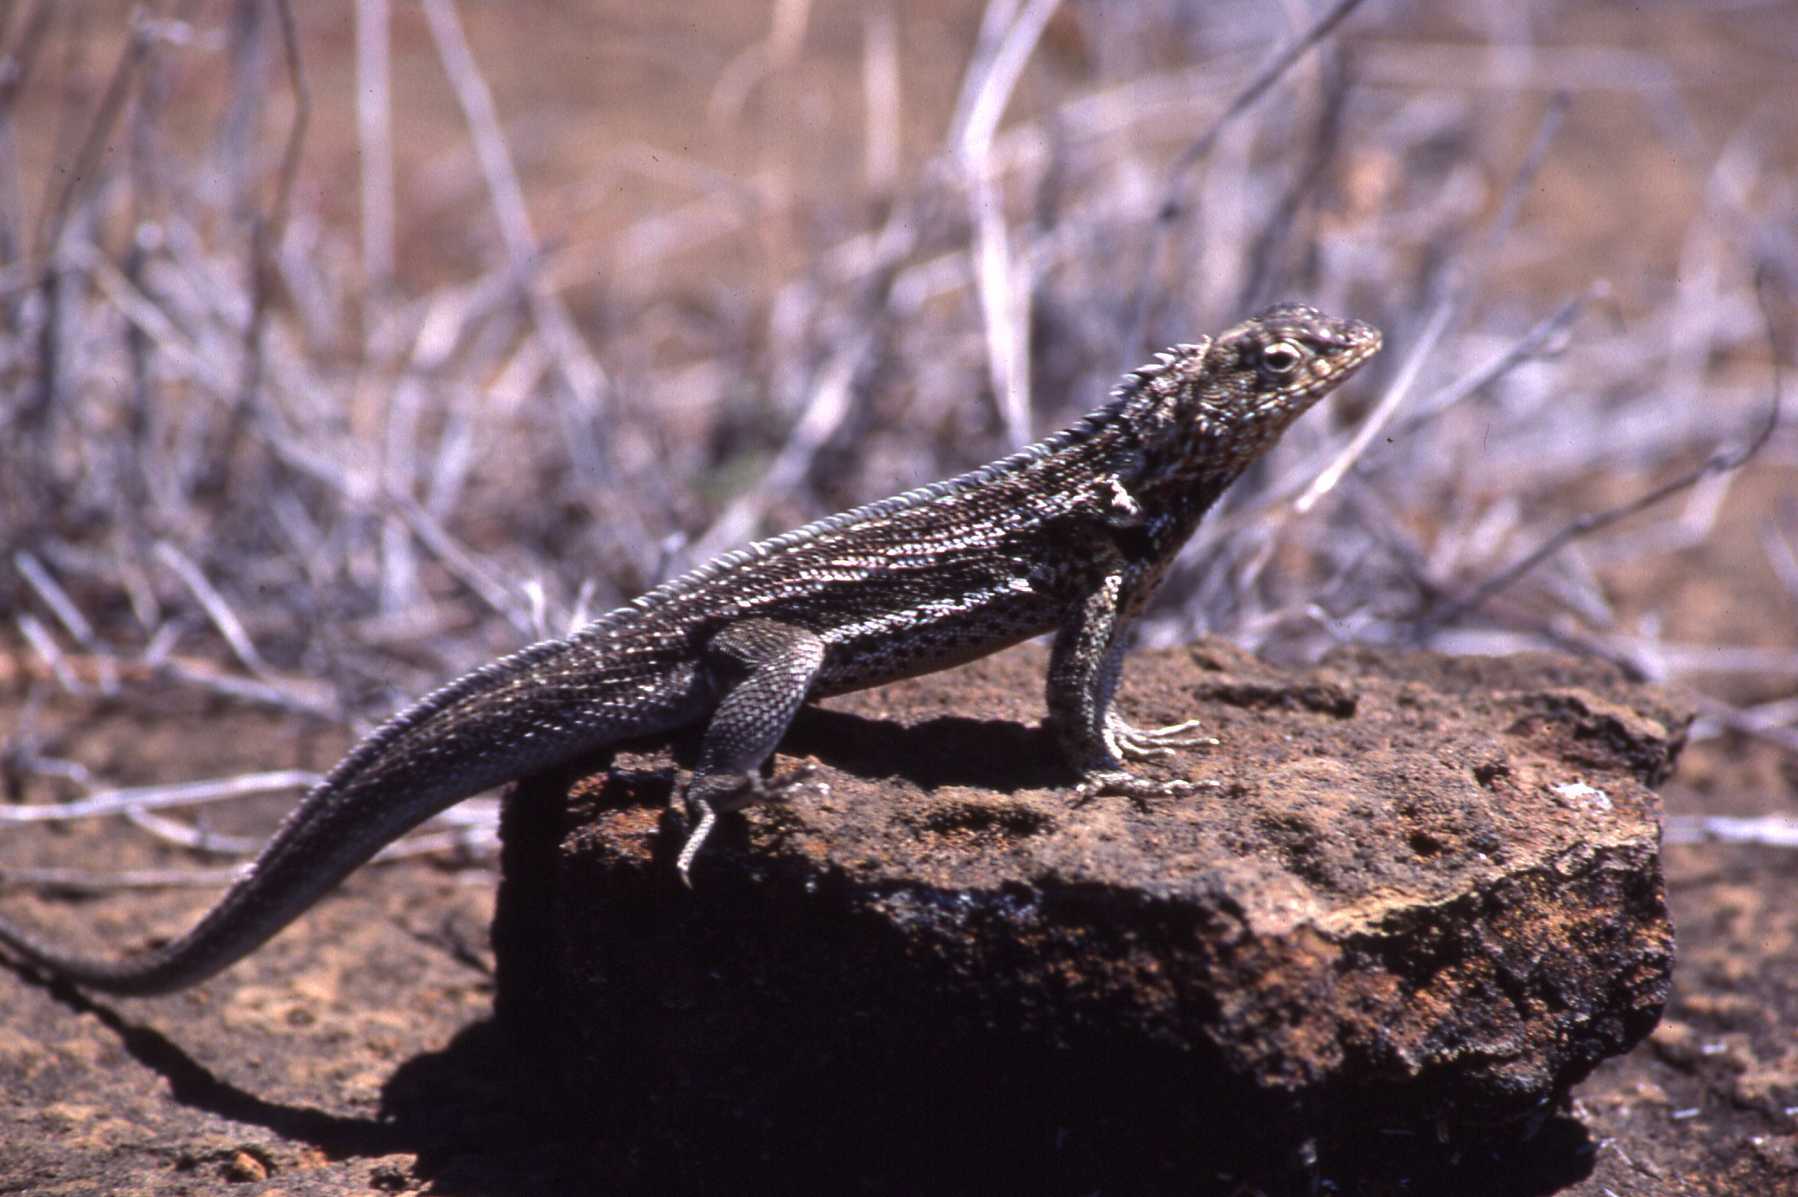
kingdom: Animalia
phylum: Chordata
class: Squamata
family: Tropiduridae
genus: Microlophus
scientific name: Microlophus jacobii
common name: Santiago lava lizard
